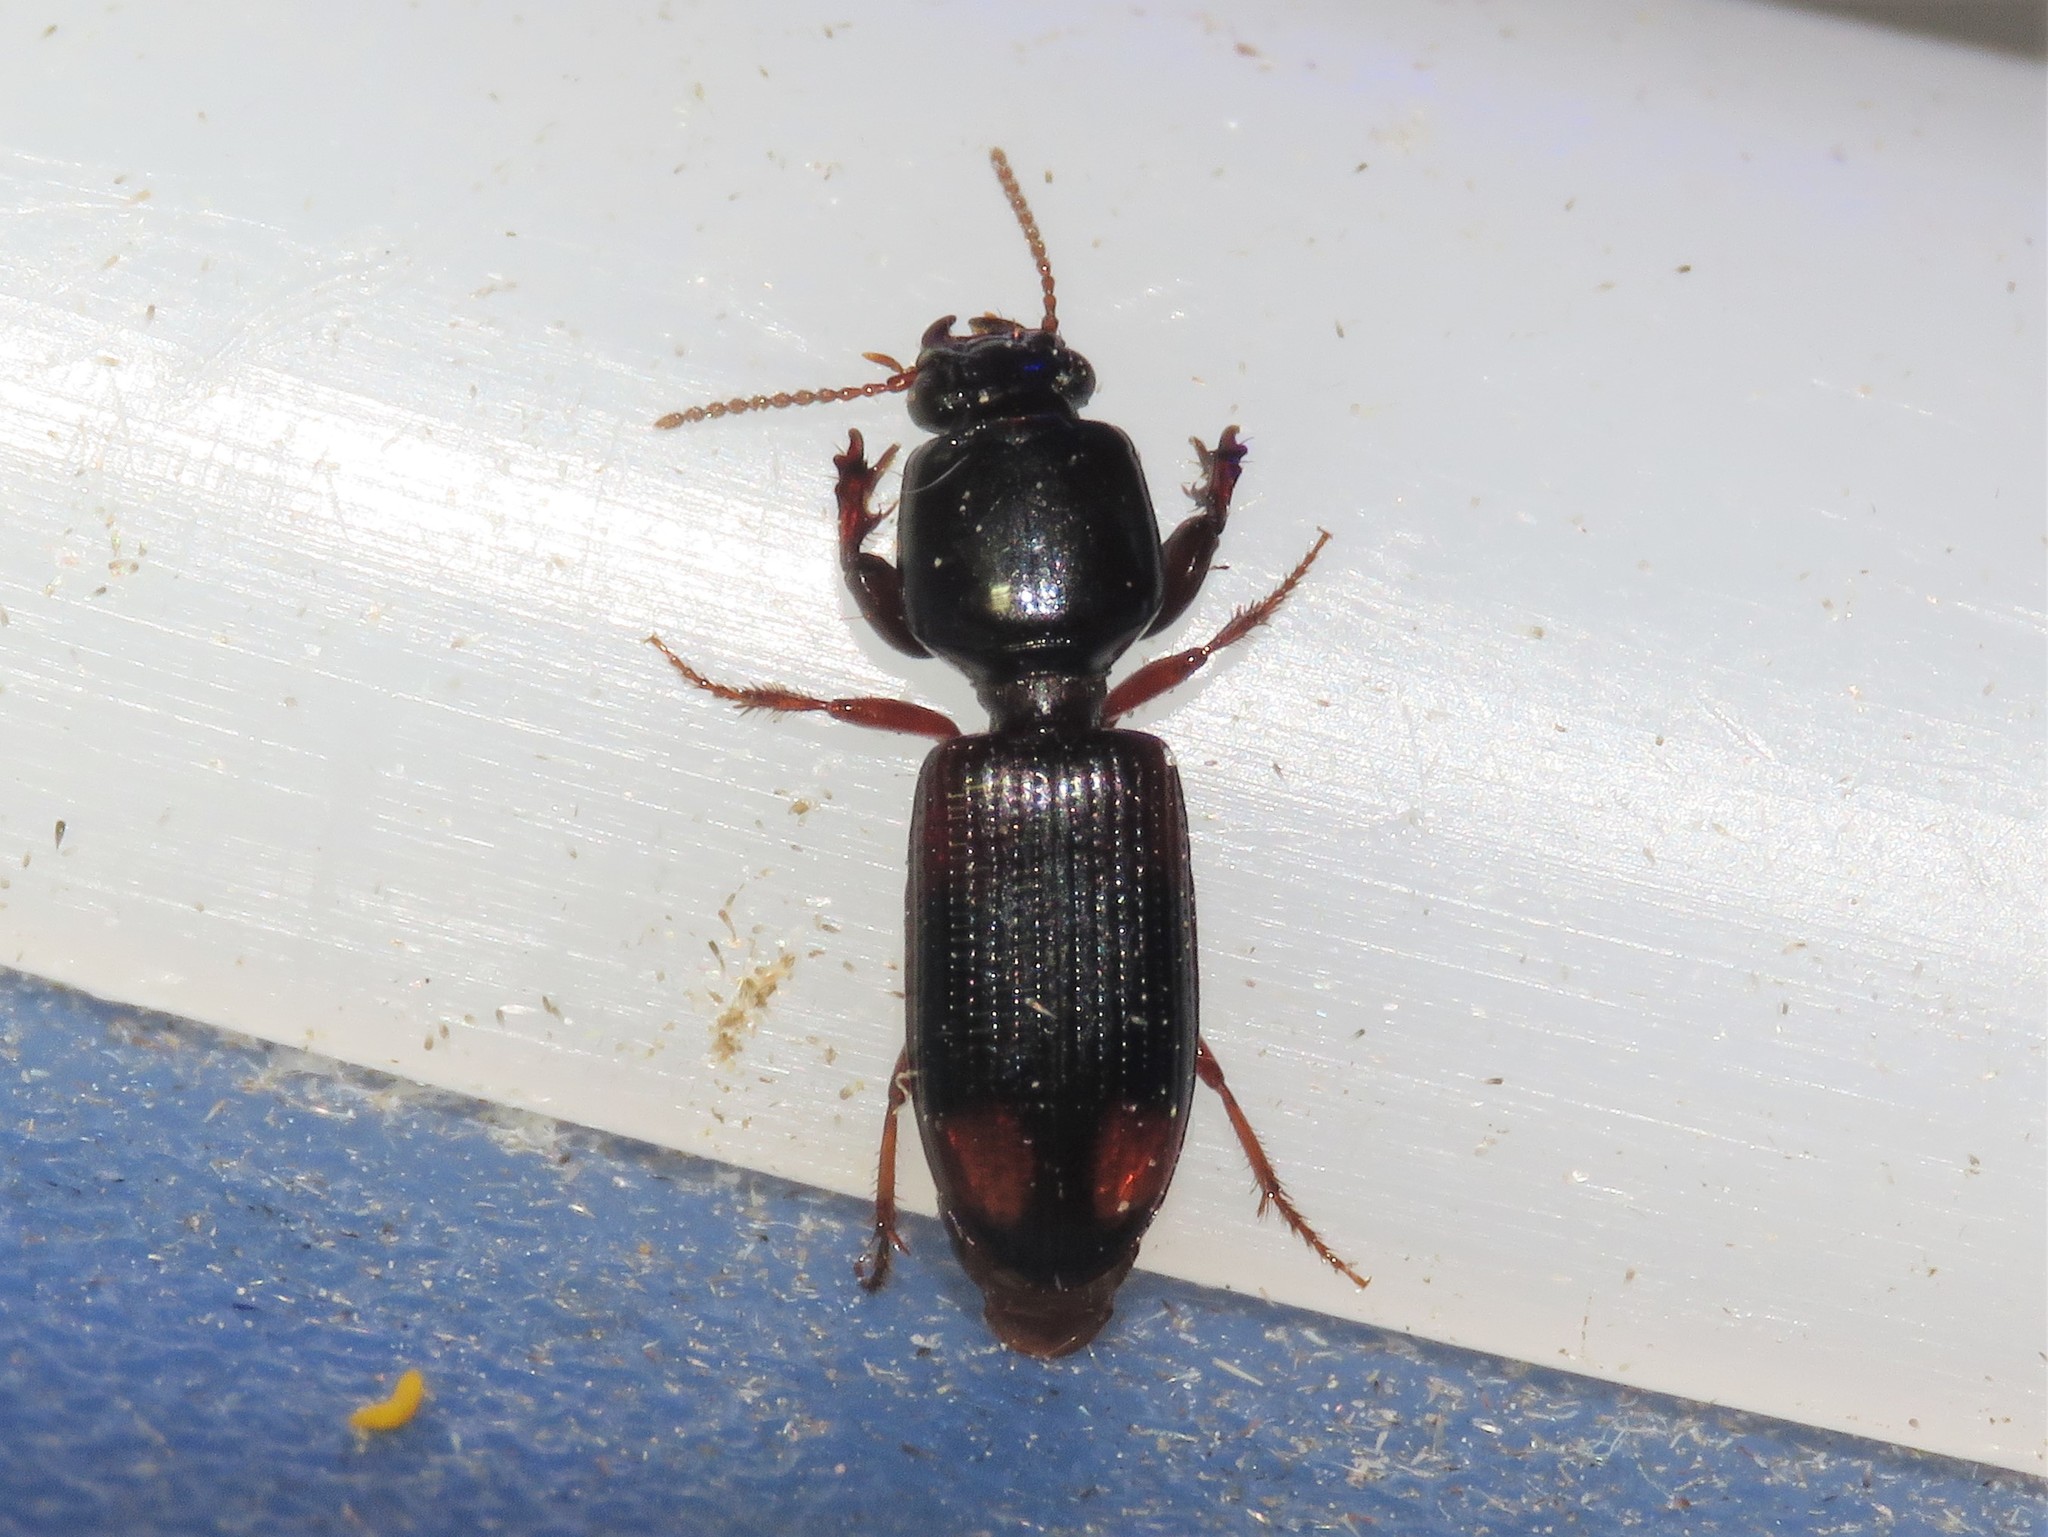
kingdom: Animalia
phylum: Arthropoda
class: Insecta
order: Coleoptera
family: Carabidae
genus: Clivina
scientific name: Clivina bipustulata
